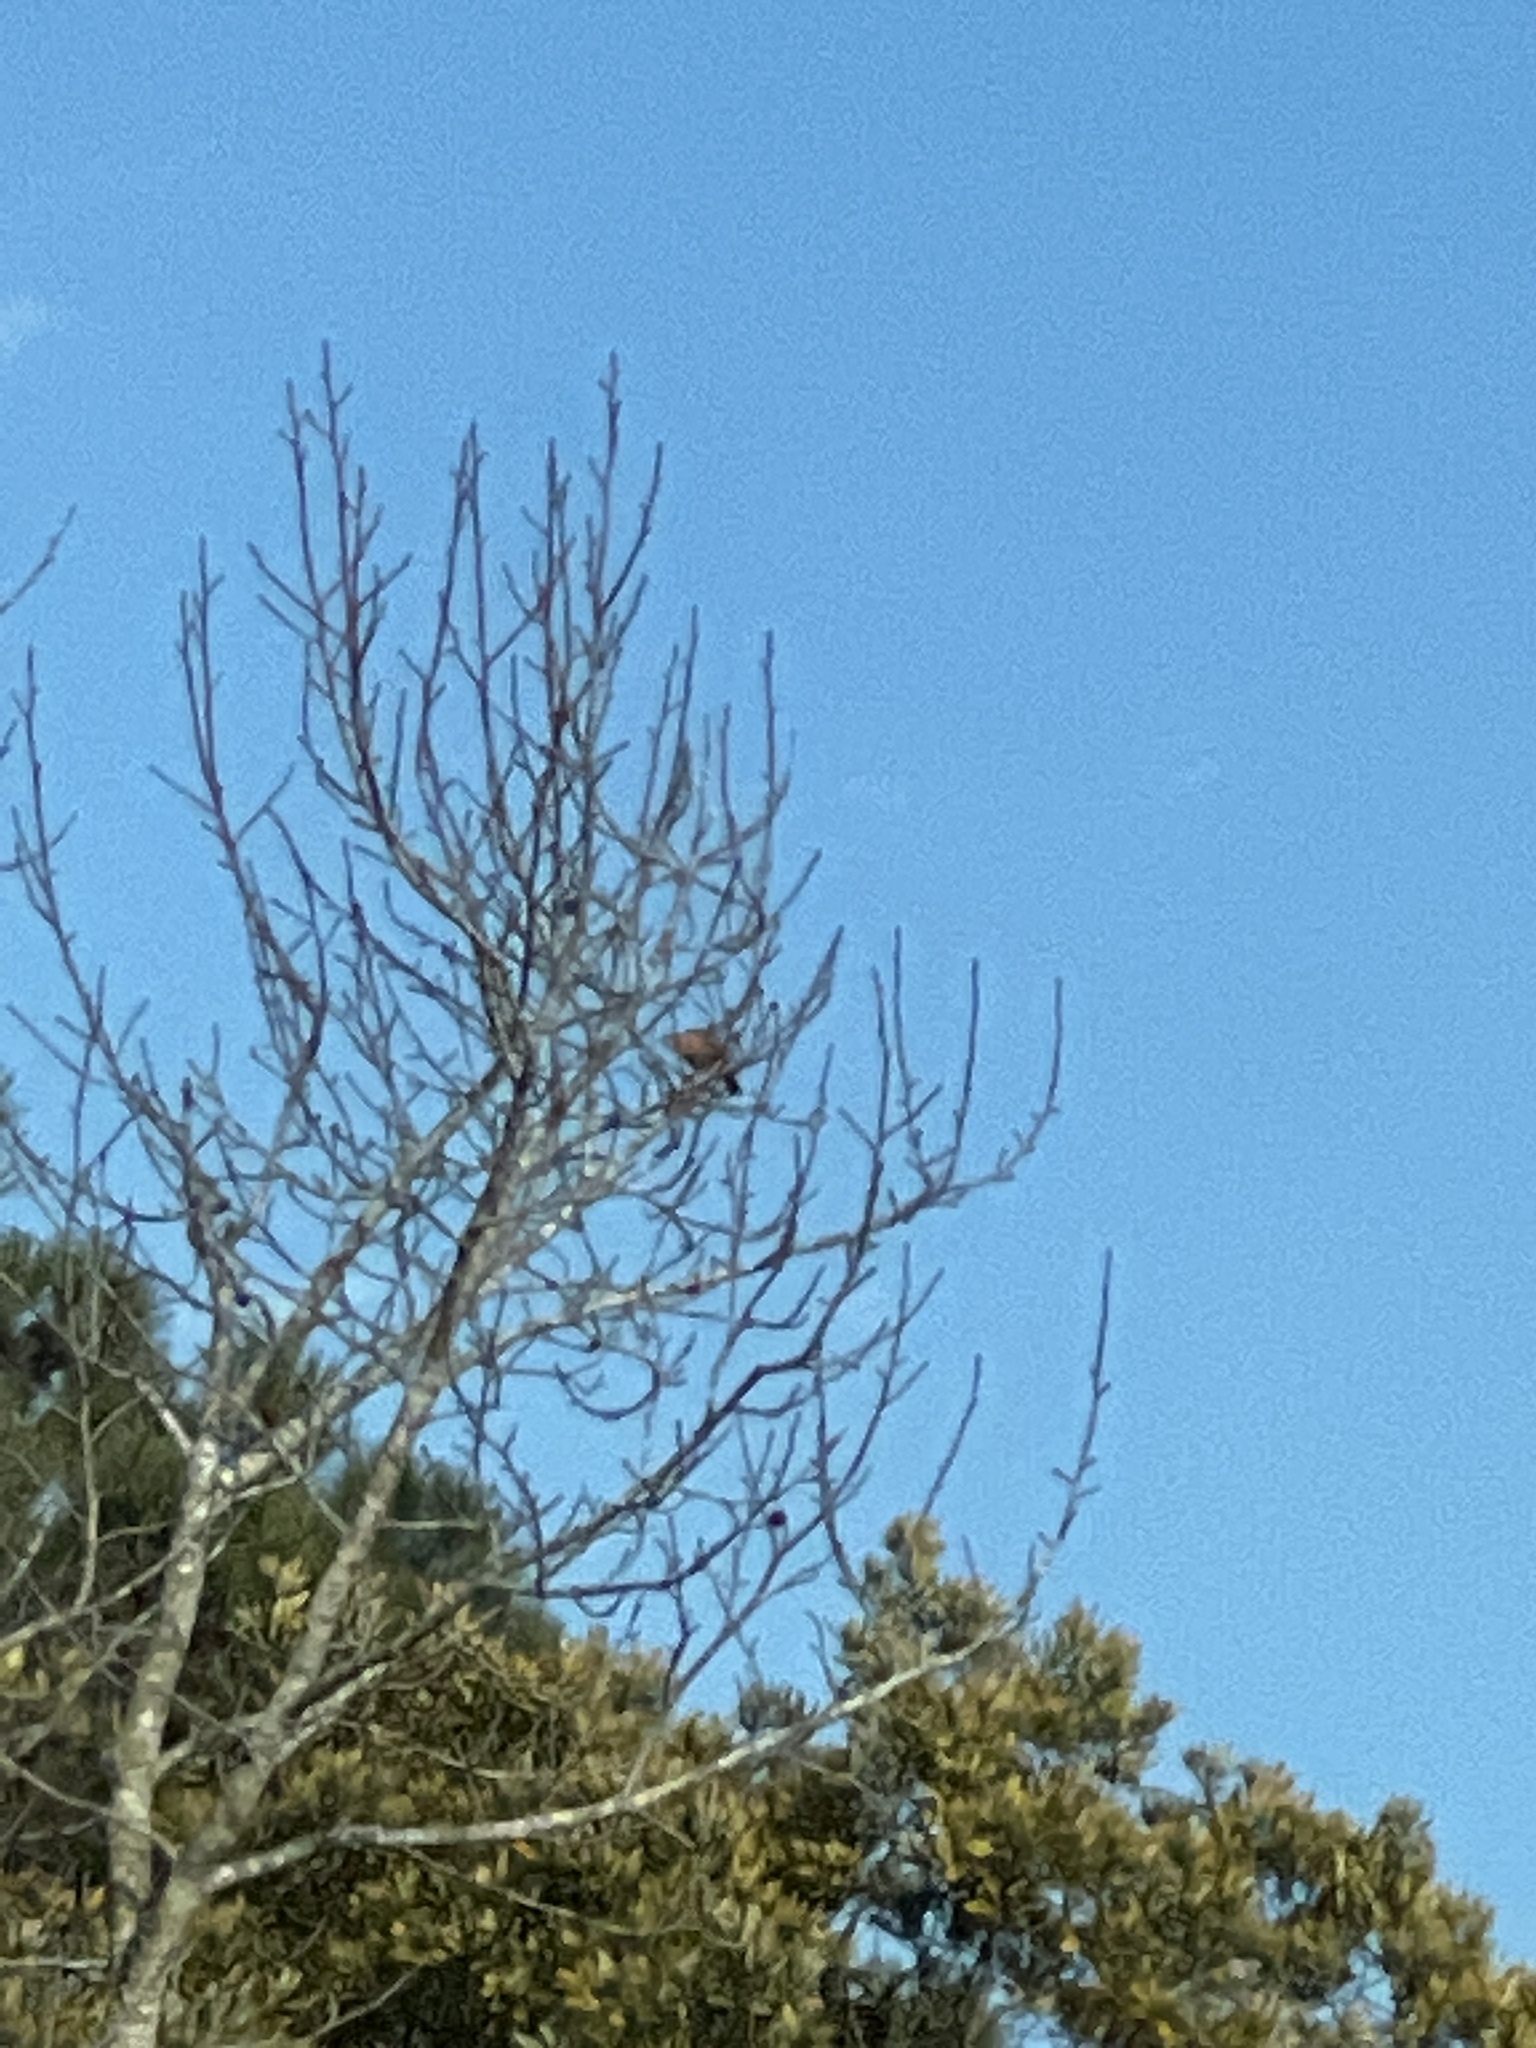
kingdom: Animalia
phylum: Chordata
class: Aves
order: Passeriformes
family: Turdidae
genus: Turdus
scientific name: Turdus migratorius
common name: American robin
